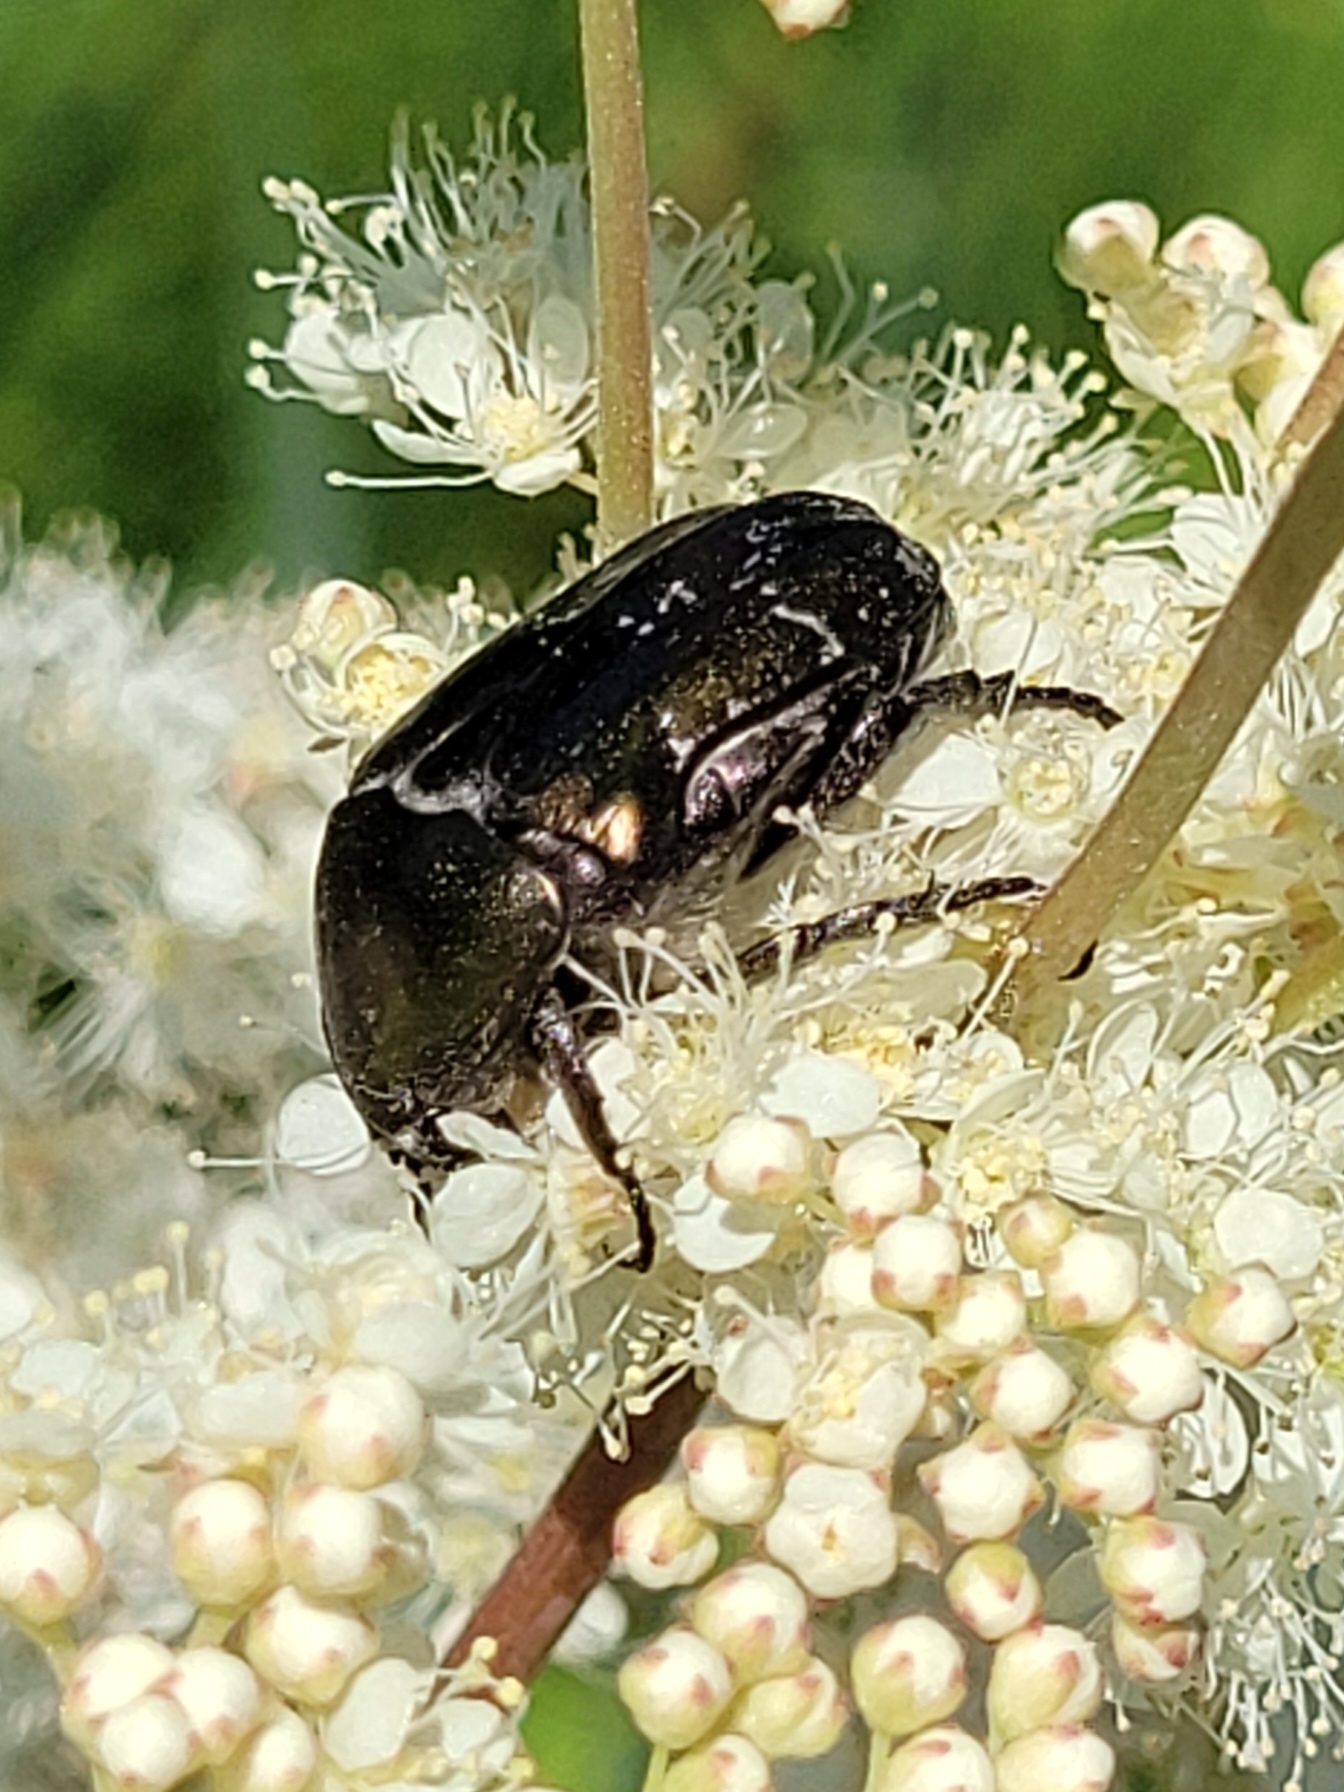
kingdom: Animalia
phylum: Arthropoda
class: Insecta
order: Coleoptera
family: Scarabaeidae
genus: Protaetia
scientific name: Protaetia cuprea
